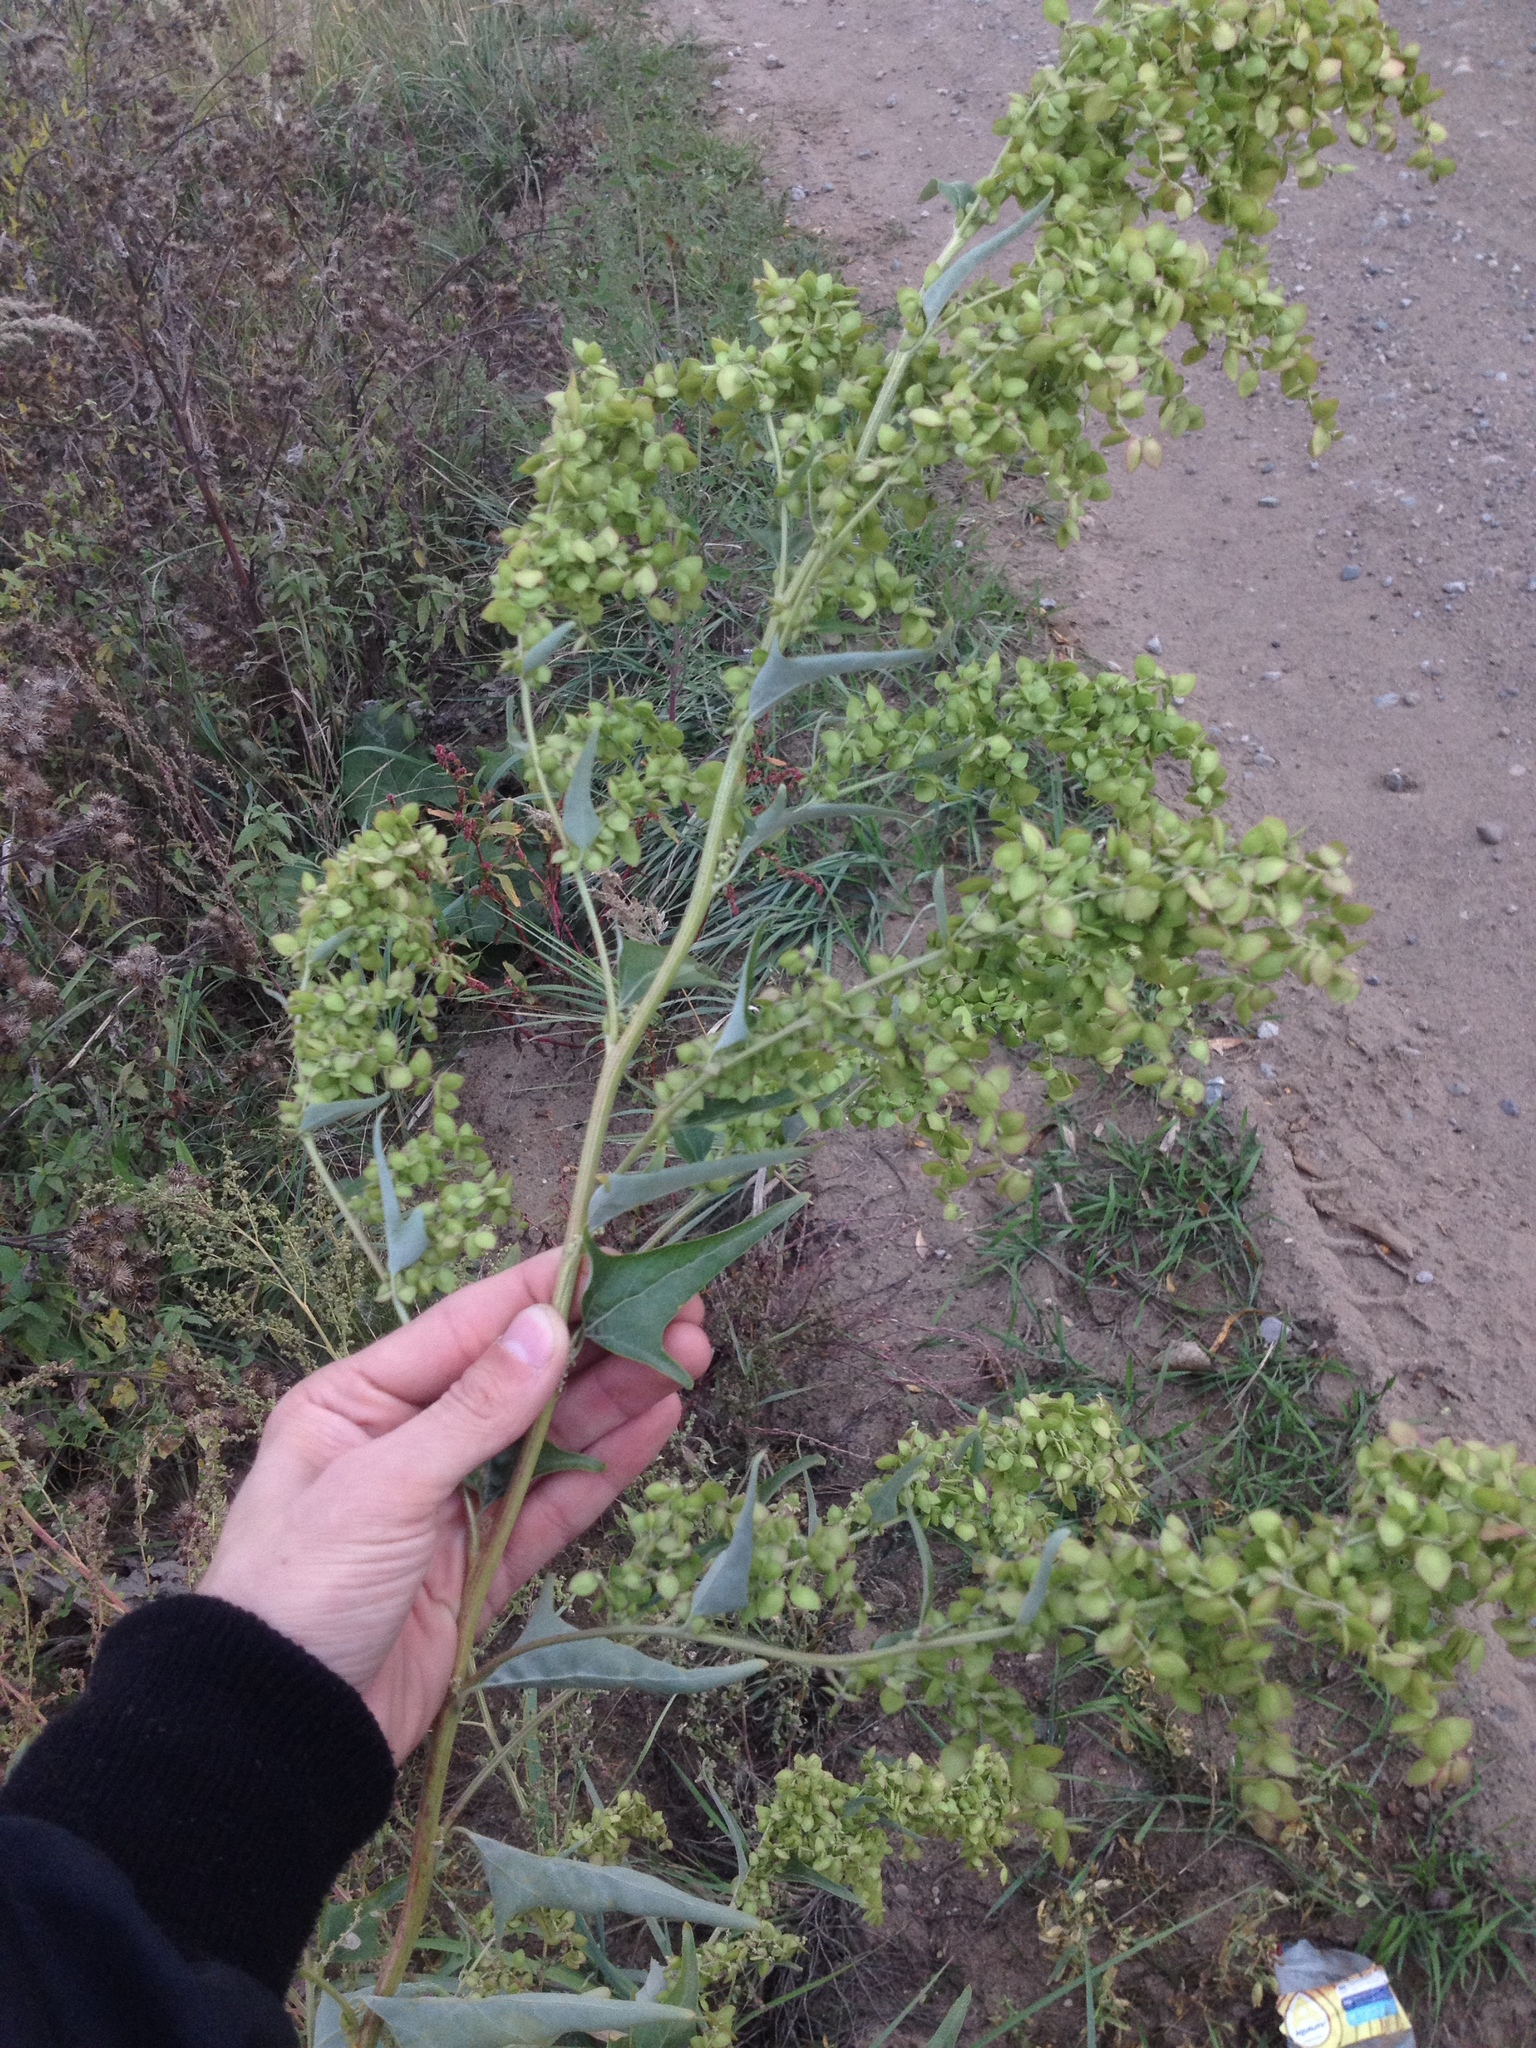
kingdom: Plantae
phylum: Tracheophyta
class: Magnoliopsida
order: Caryophyllales
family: Amaranthaceae
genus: Atriplex
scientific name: Atriplex sagittata
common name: Purple orache
